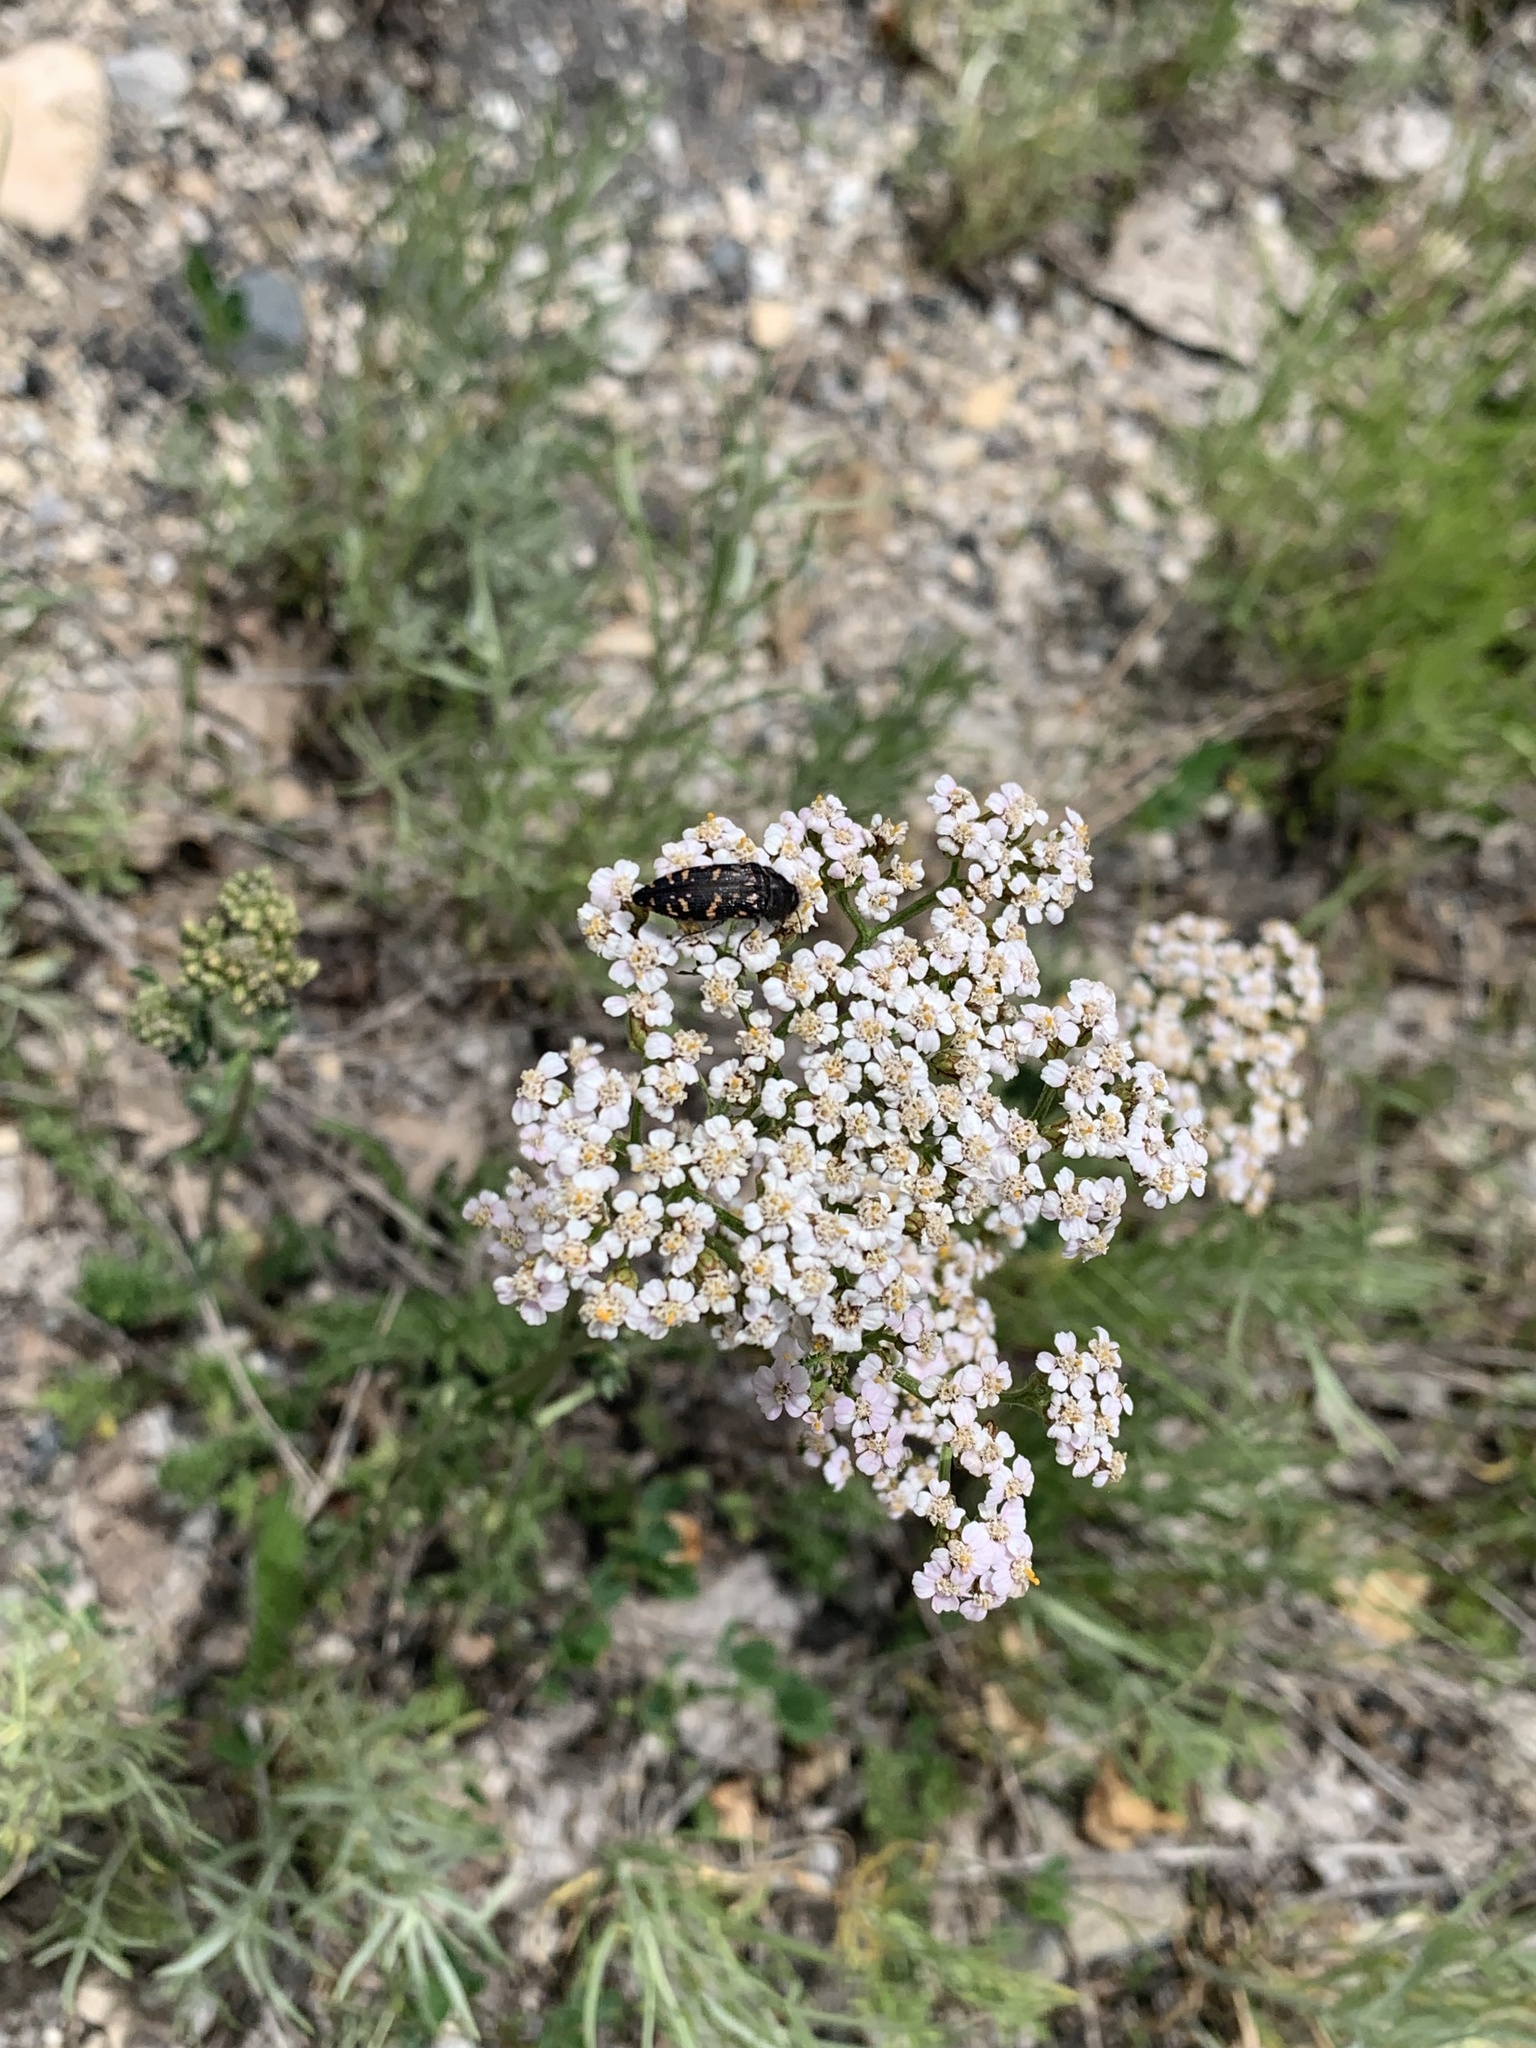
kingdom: Plantae
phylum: Tracheophyta
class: Magnoliopsida
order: Asterales
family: Asteraceae
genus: Achillea
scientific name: Achillea millefolium
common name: Yarrow
